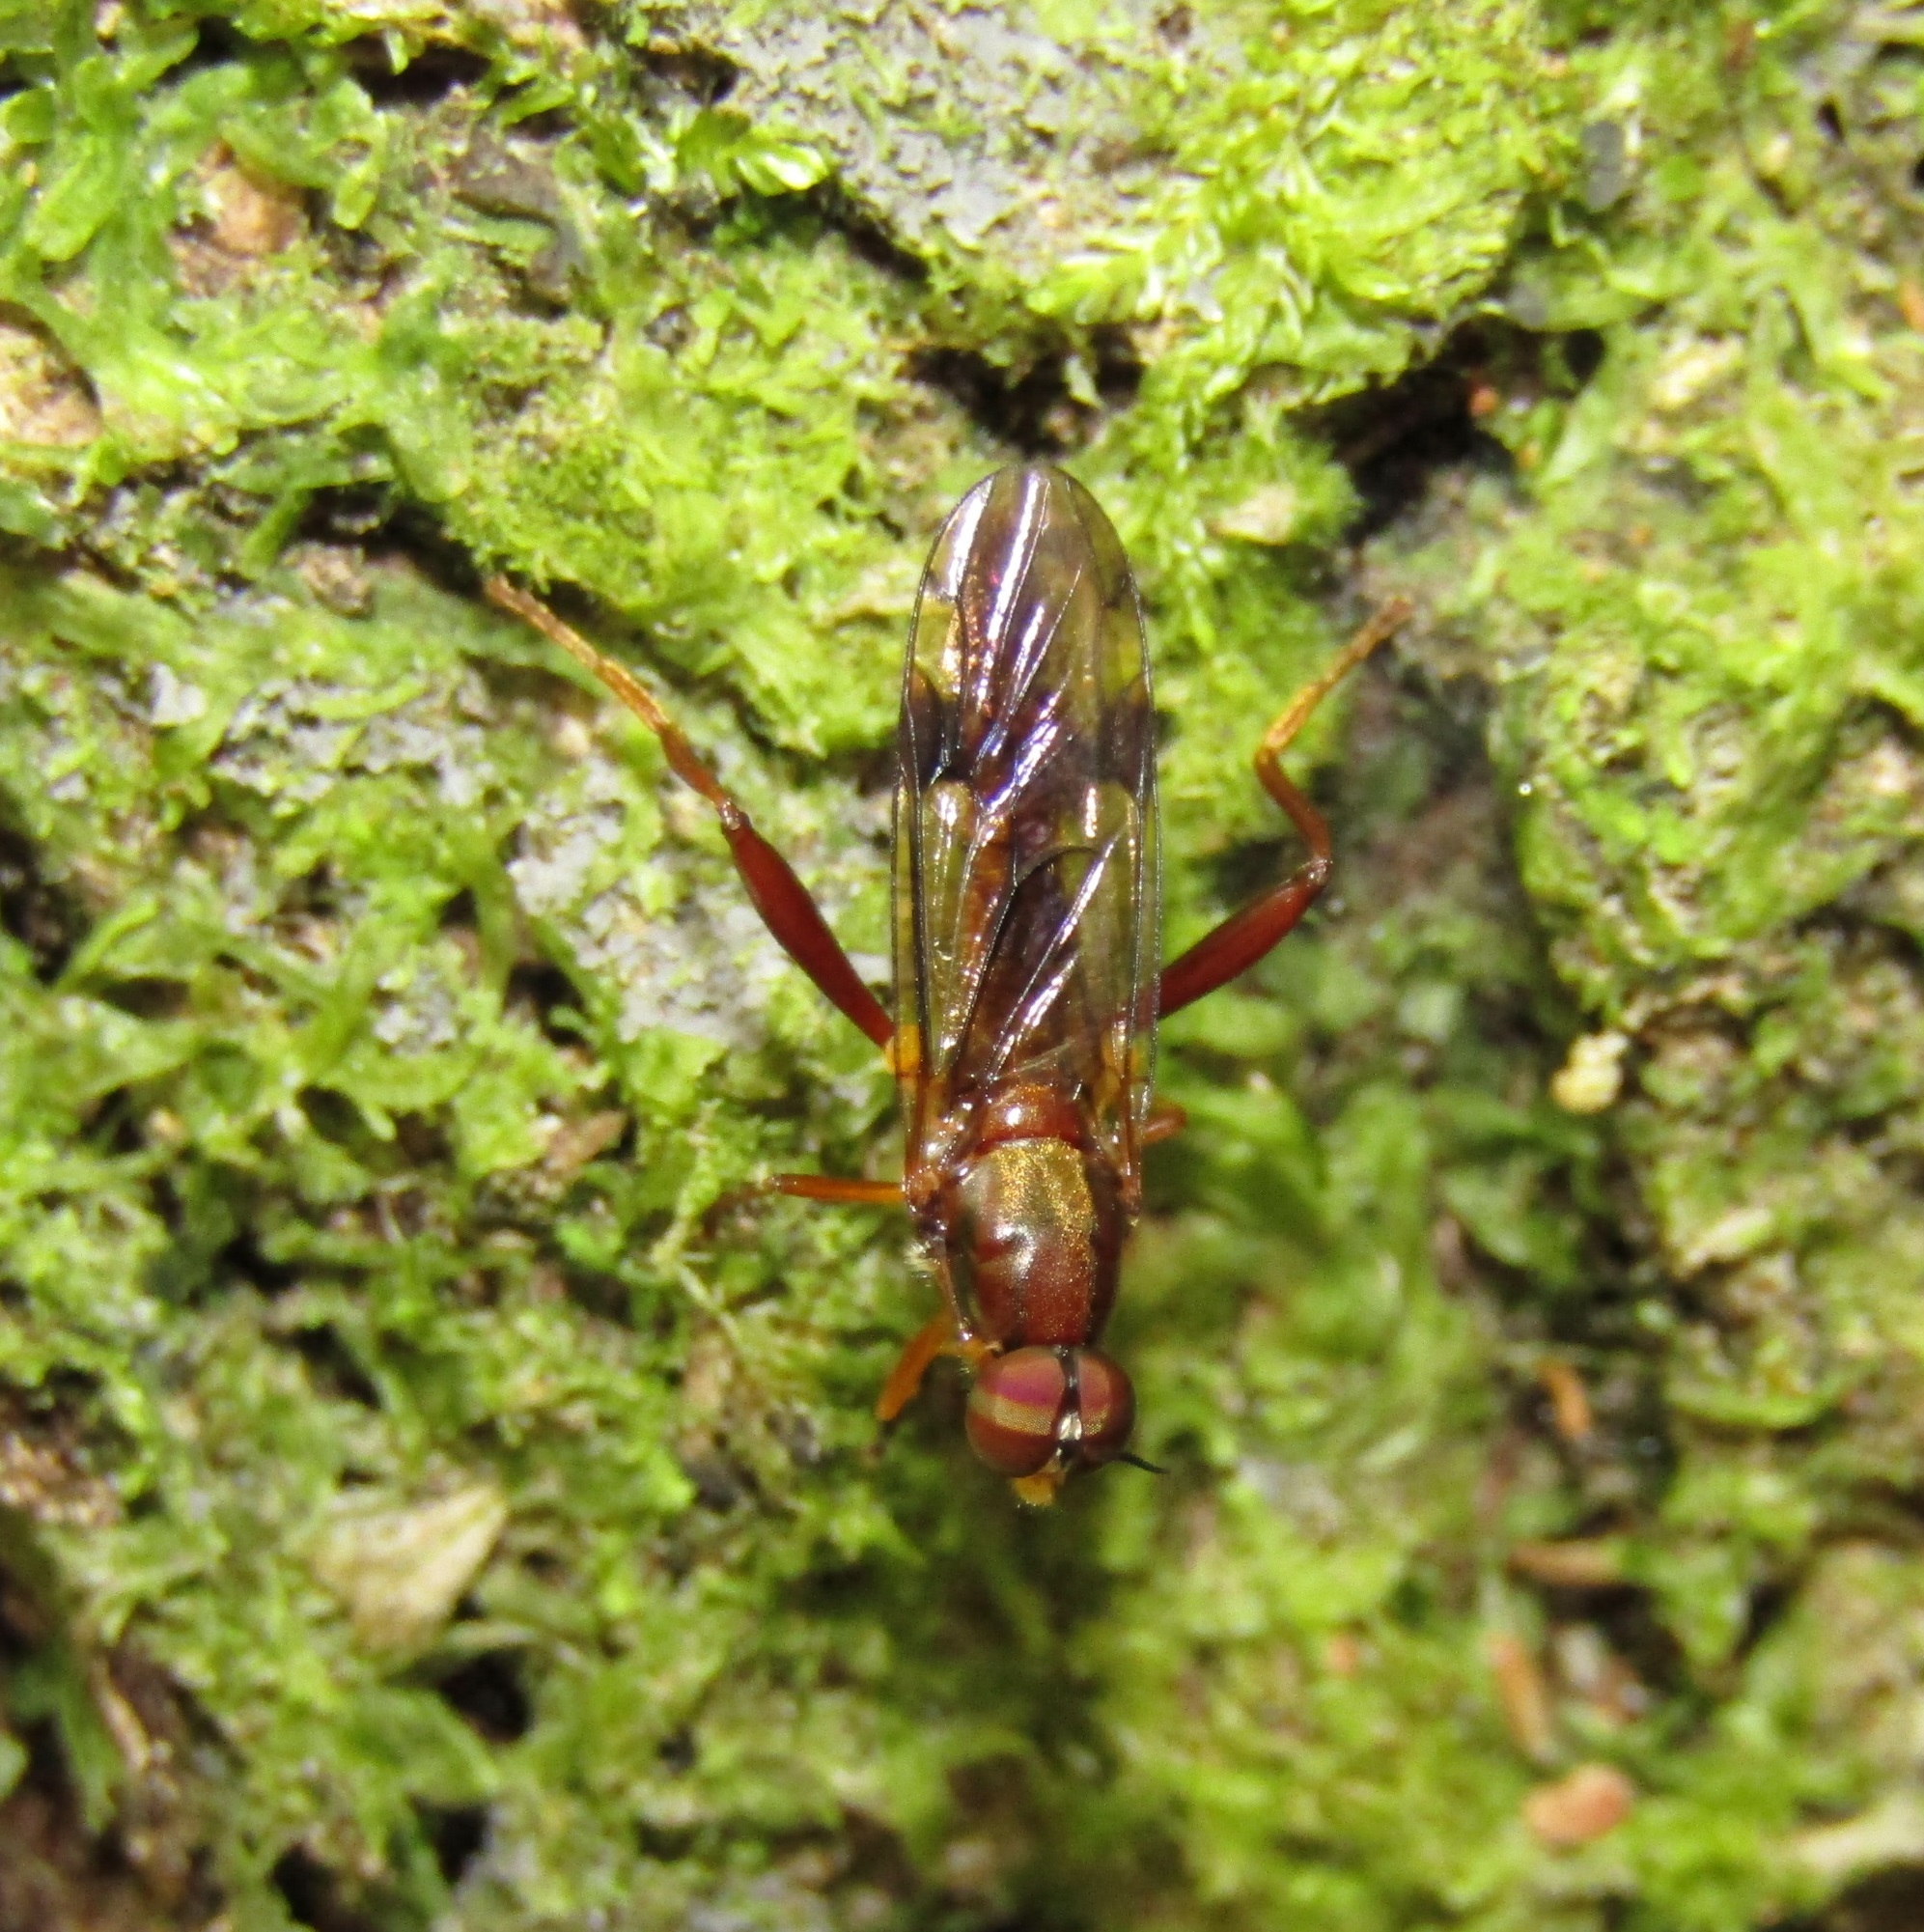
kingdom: Animalia
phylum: Arthropoda
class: Insecta
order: Diptera
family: Stratiomyidae
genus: Benhamyia
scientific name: Benhamyia straznitzkii
